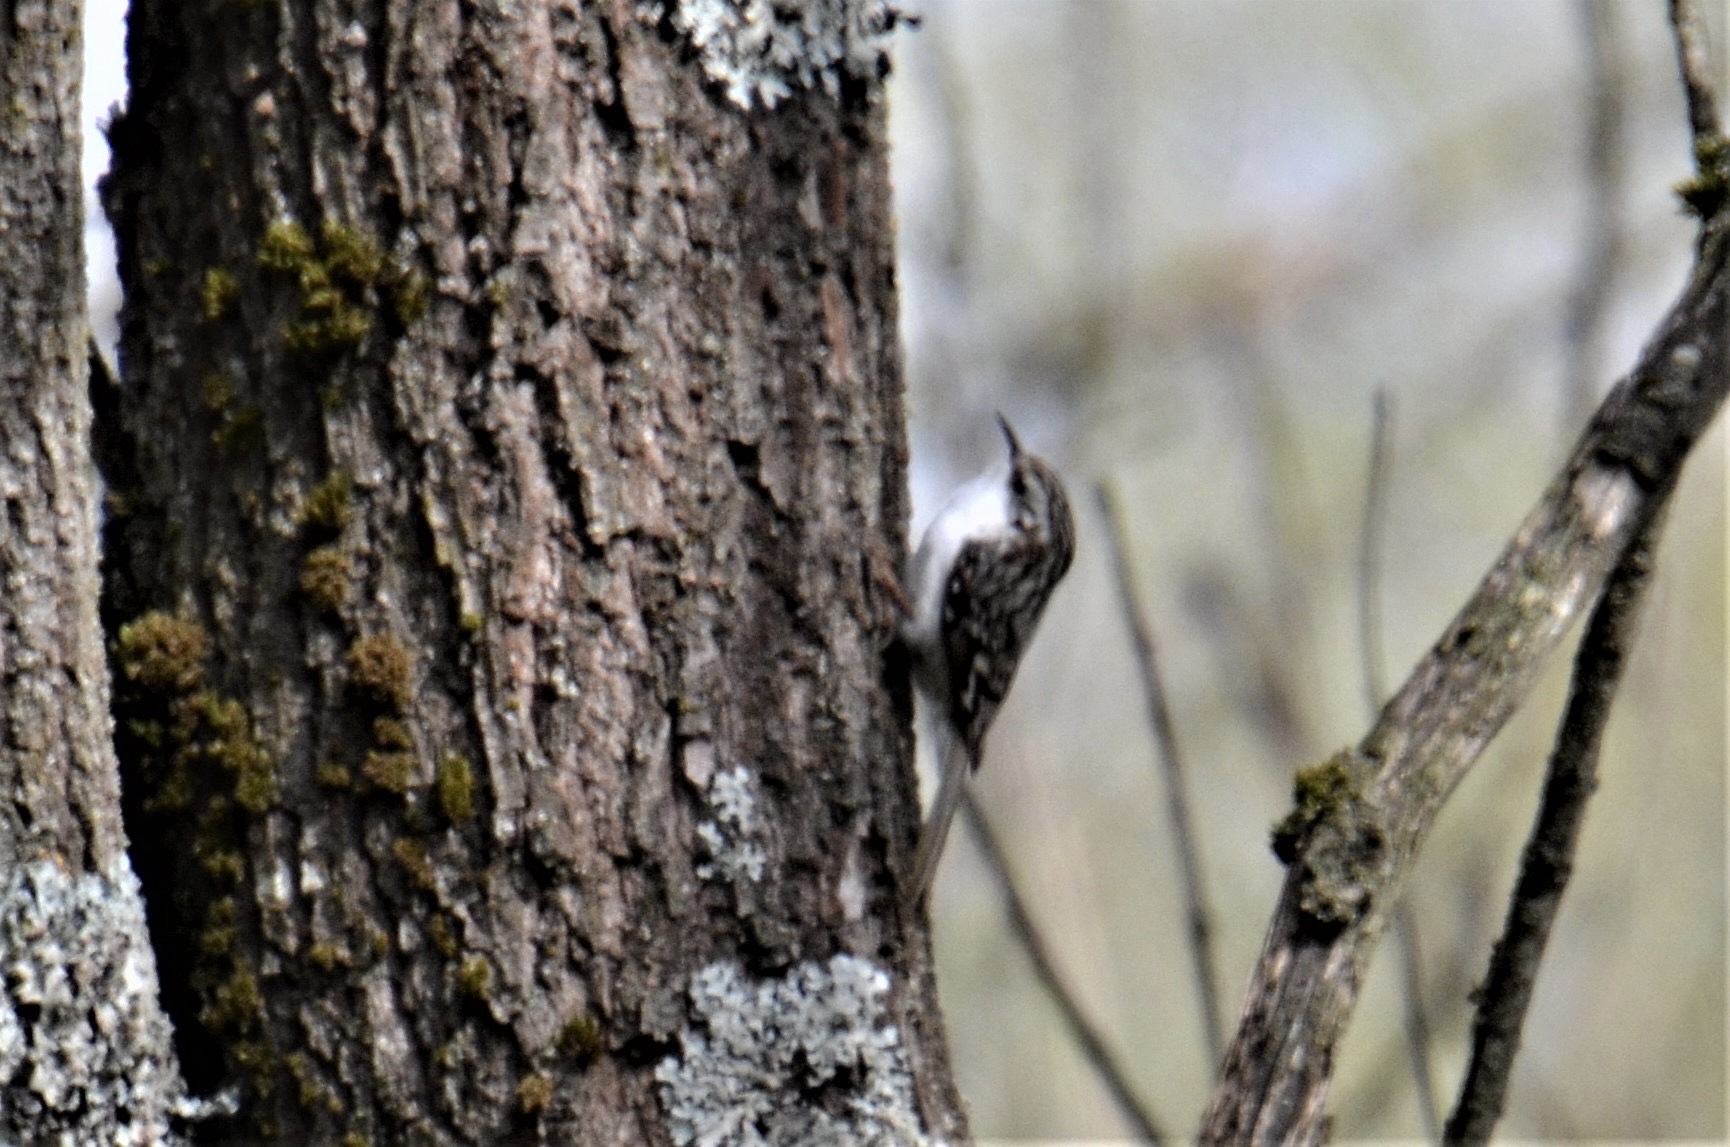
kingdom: Animalia
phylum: Chordata
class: Aves
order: Passeriformes
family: Certhiidae
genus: Certhia
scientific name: Certhia familiaris
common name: Eurasian treecreeper
